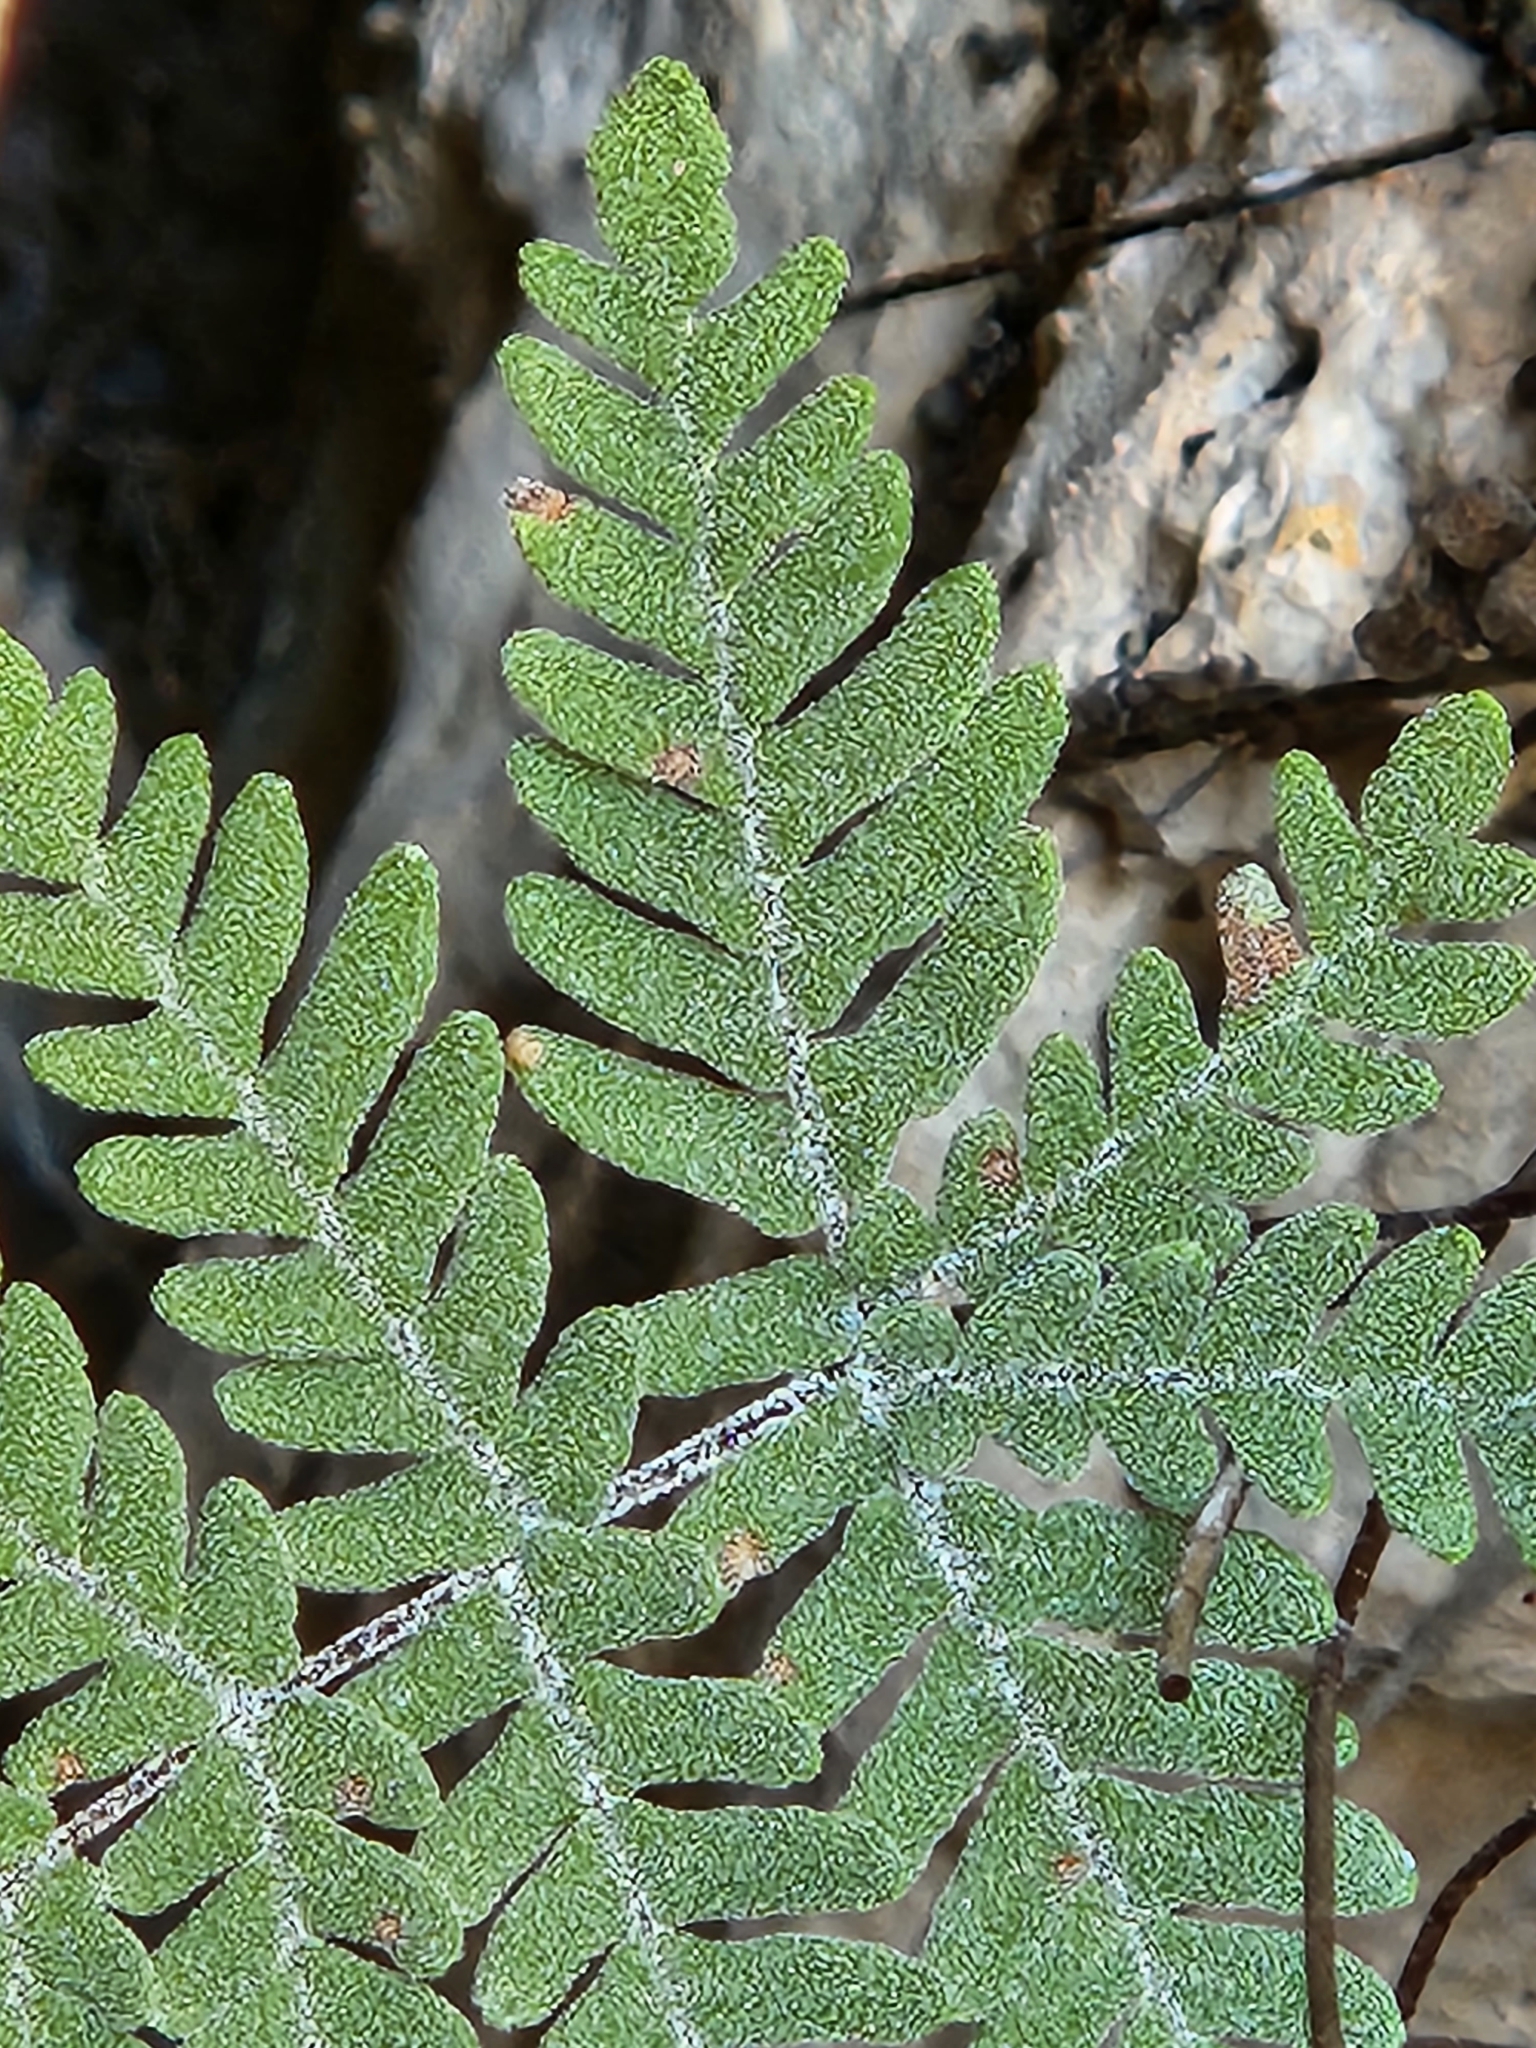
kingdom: Plantae
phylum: Tracheophyta
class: Polypodiopsida
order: Polypodiales
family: Pteridaceae
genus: Notholaena
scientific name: Notholaena candida
